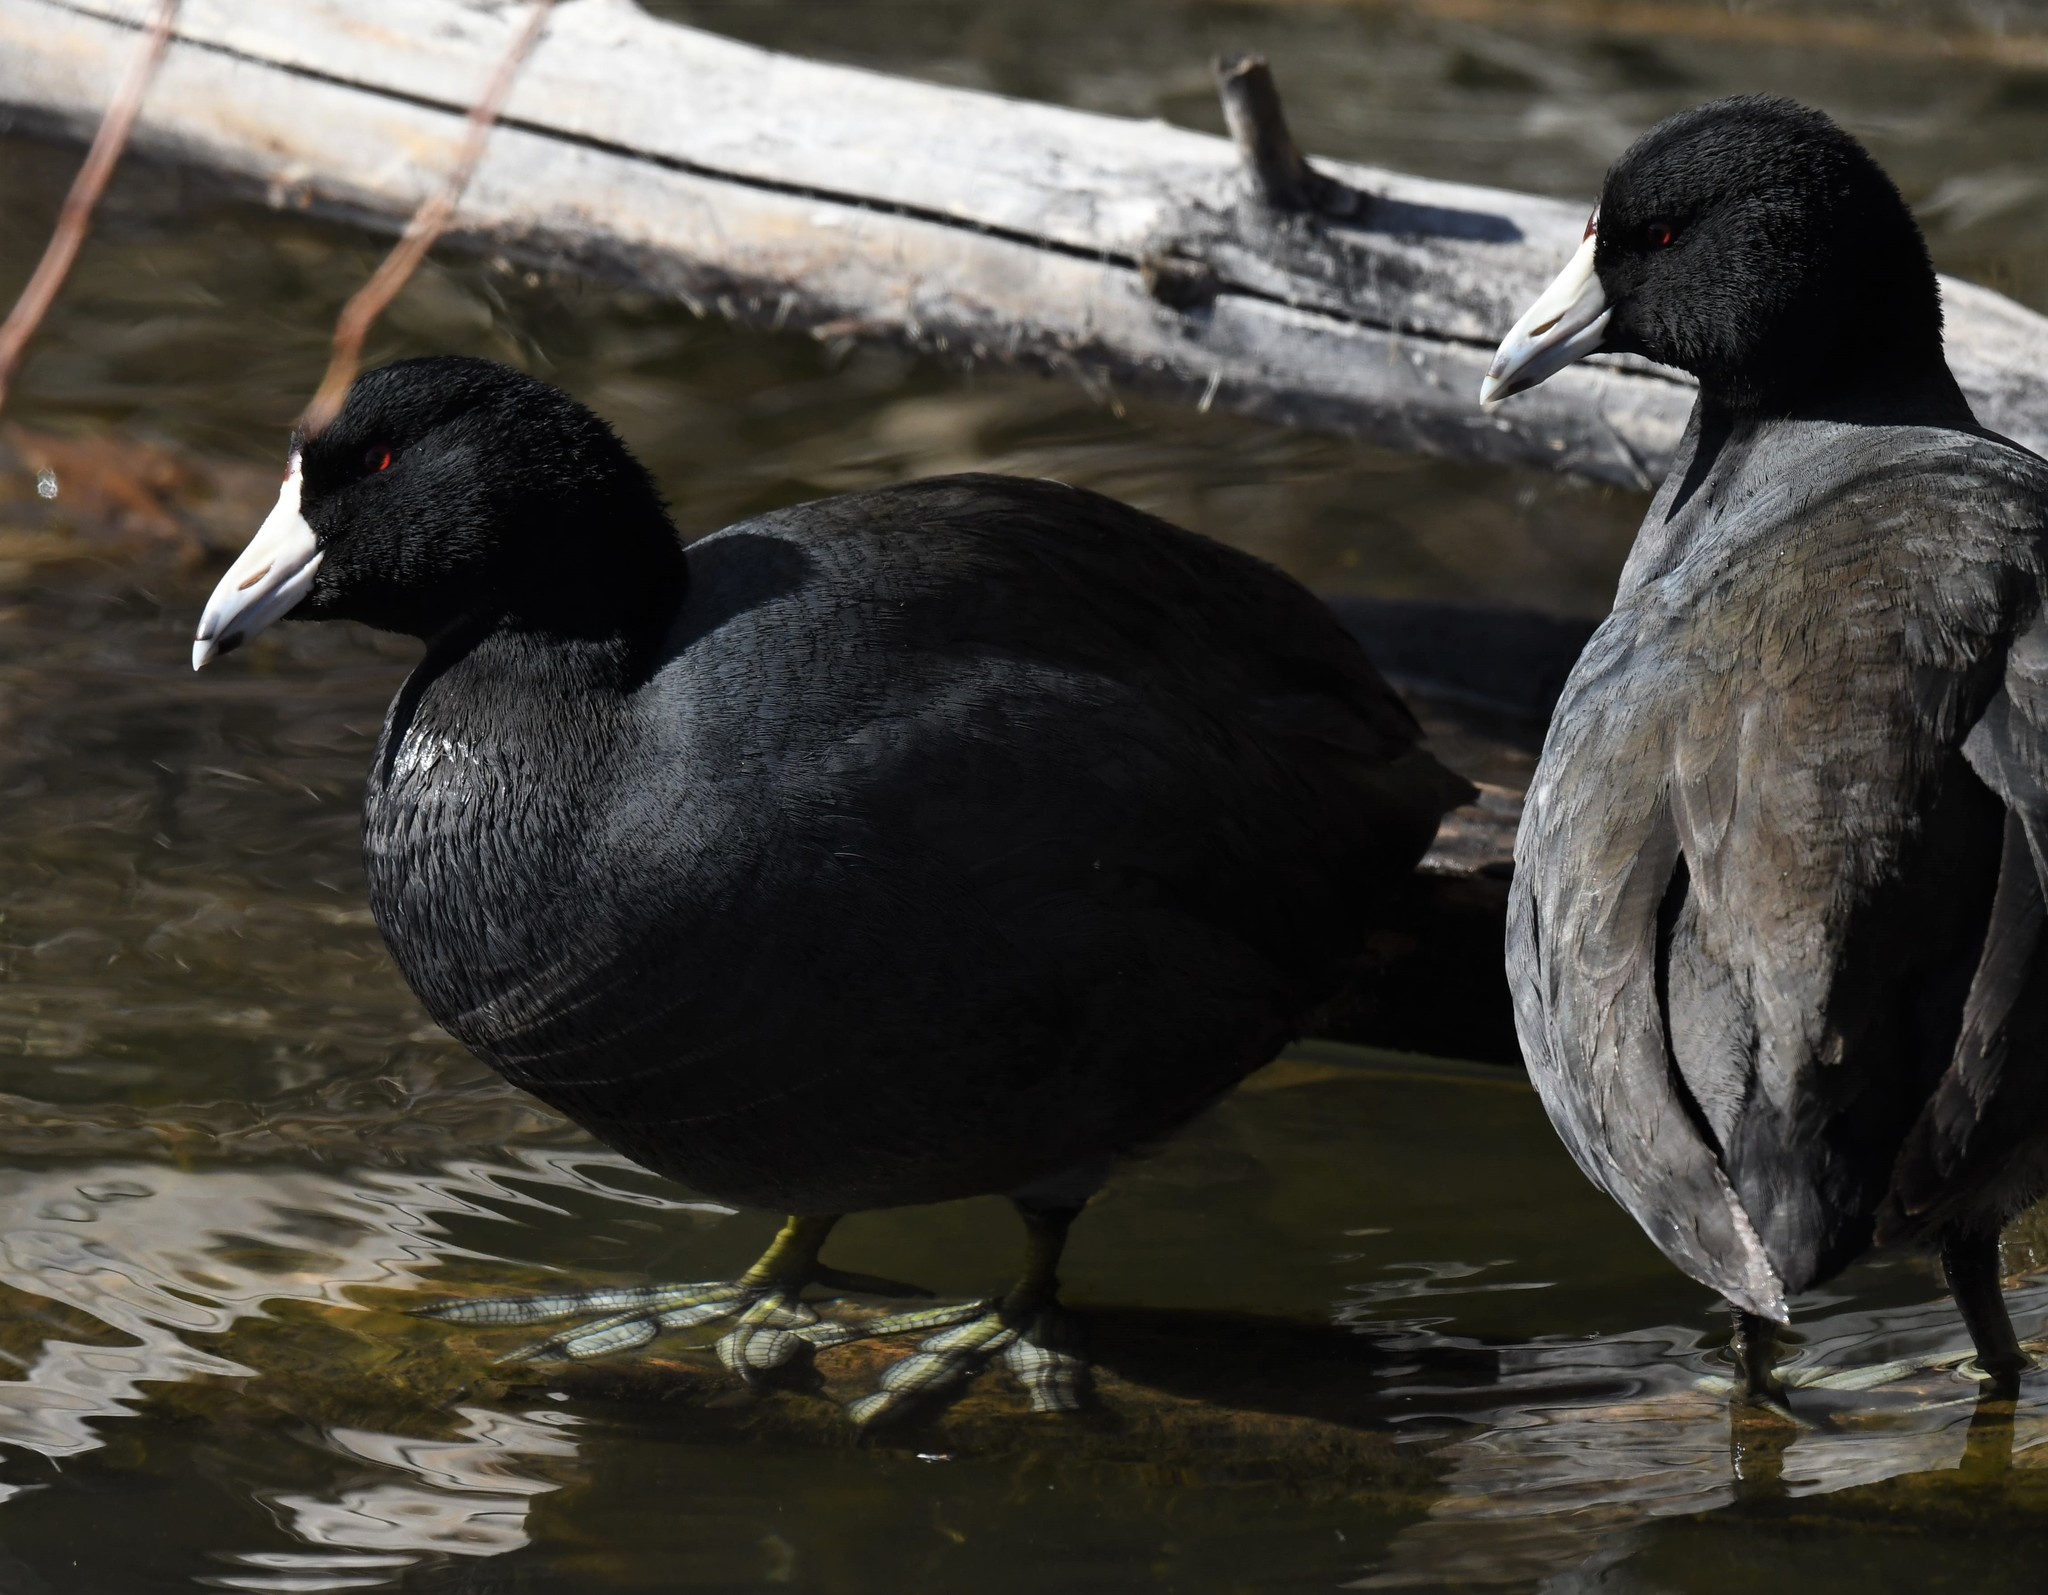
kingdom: Animalia
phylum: Chordata
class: Aves
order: Gruiformes
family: Rallidae
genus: Fulica
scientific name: Fulica americana
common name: American coot
